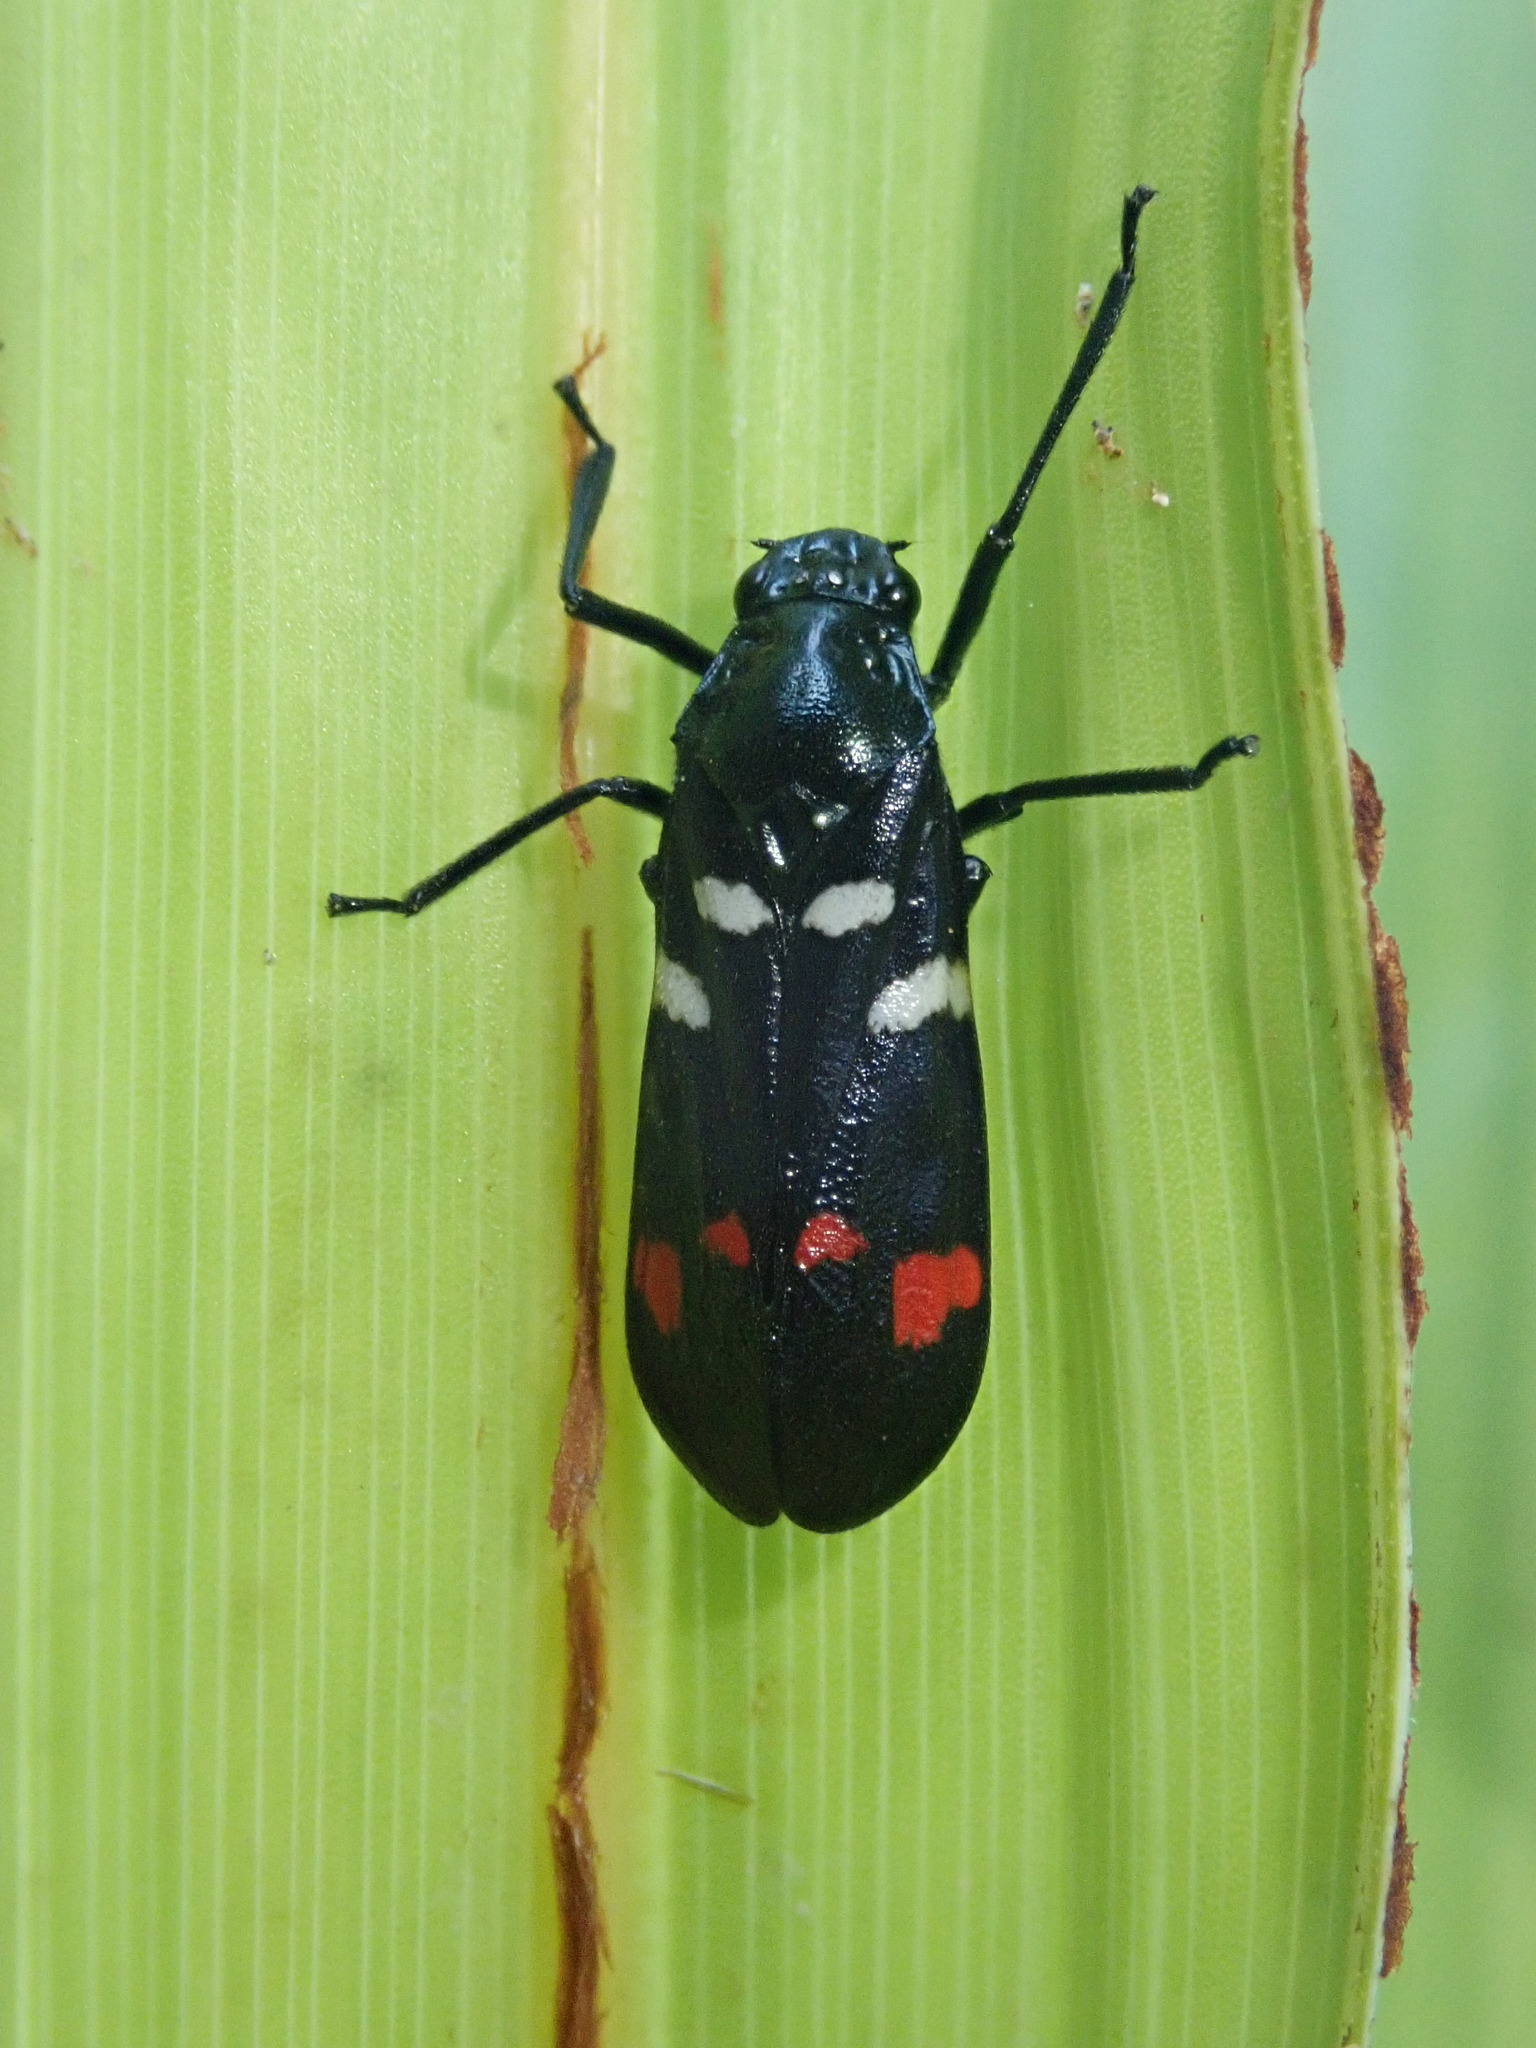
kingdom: Animalia
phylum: Arthropoda
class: Insecta
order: Hemiptera
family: Cercopidae
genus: Callitettix
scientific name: Callitettix versicolor
